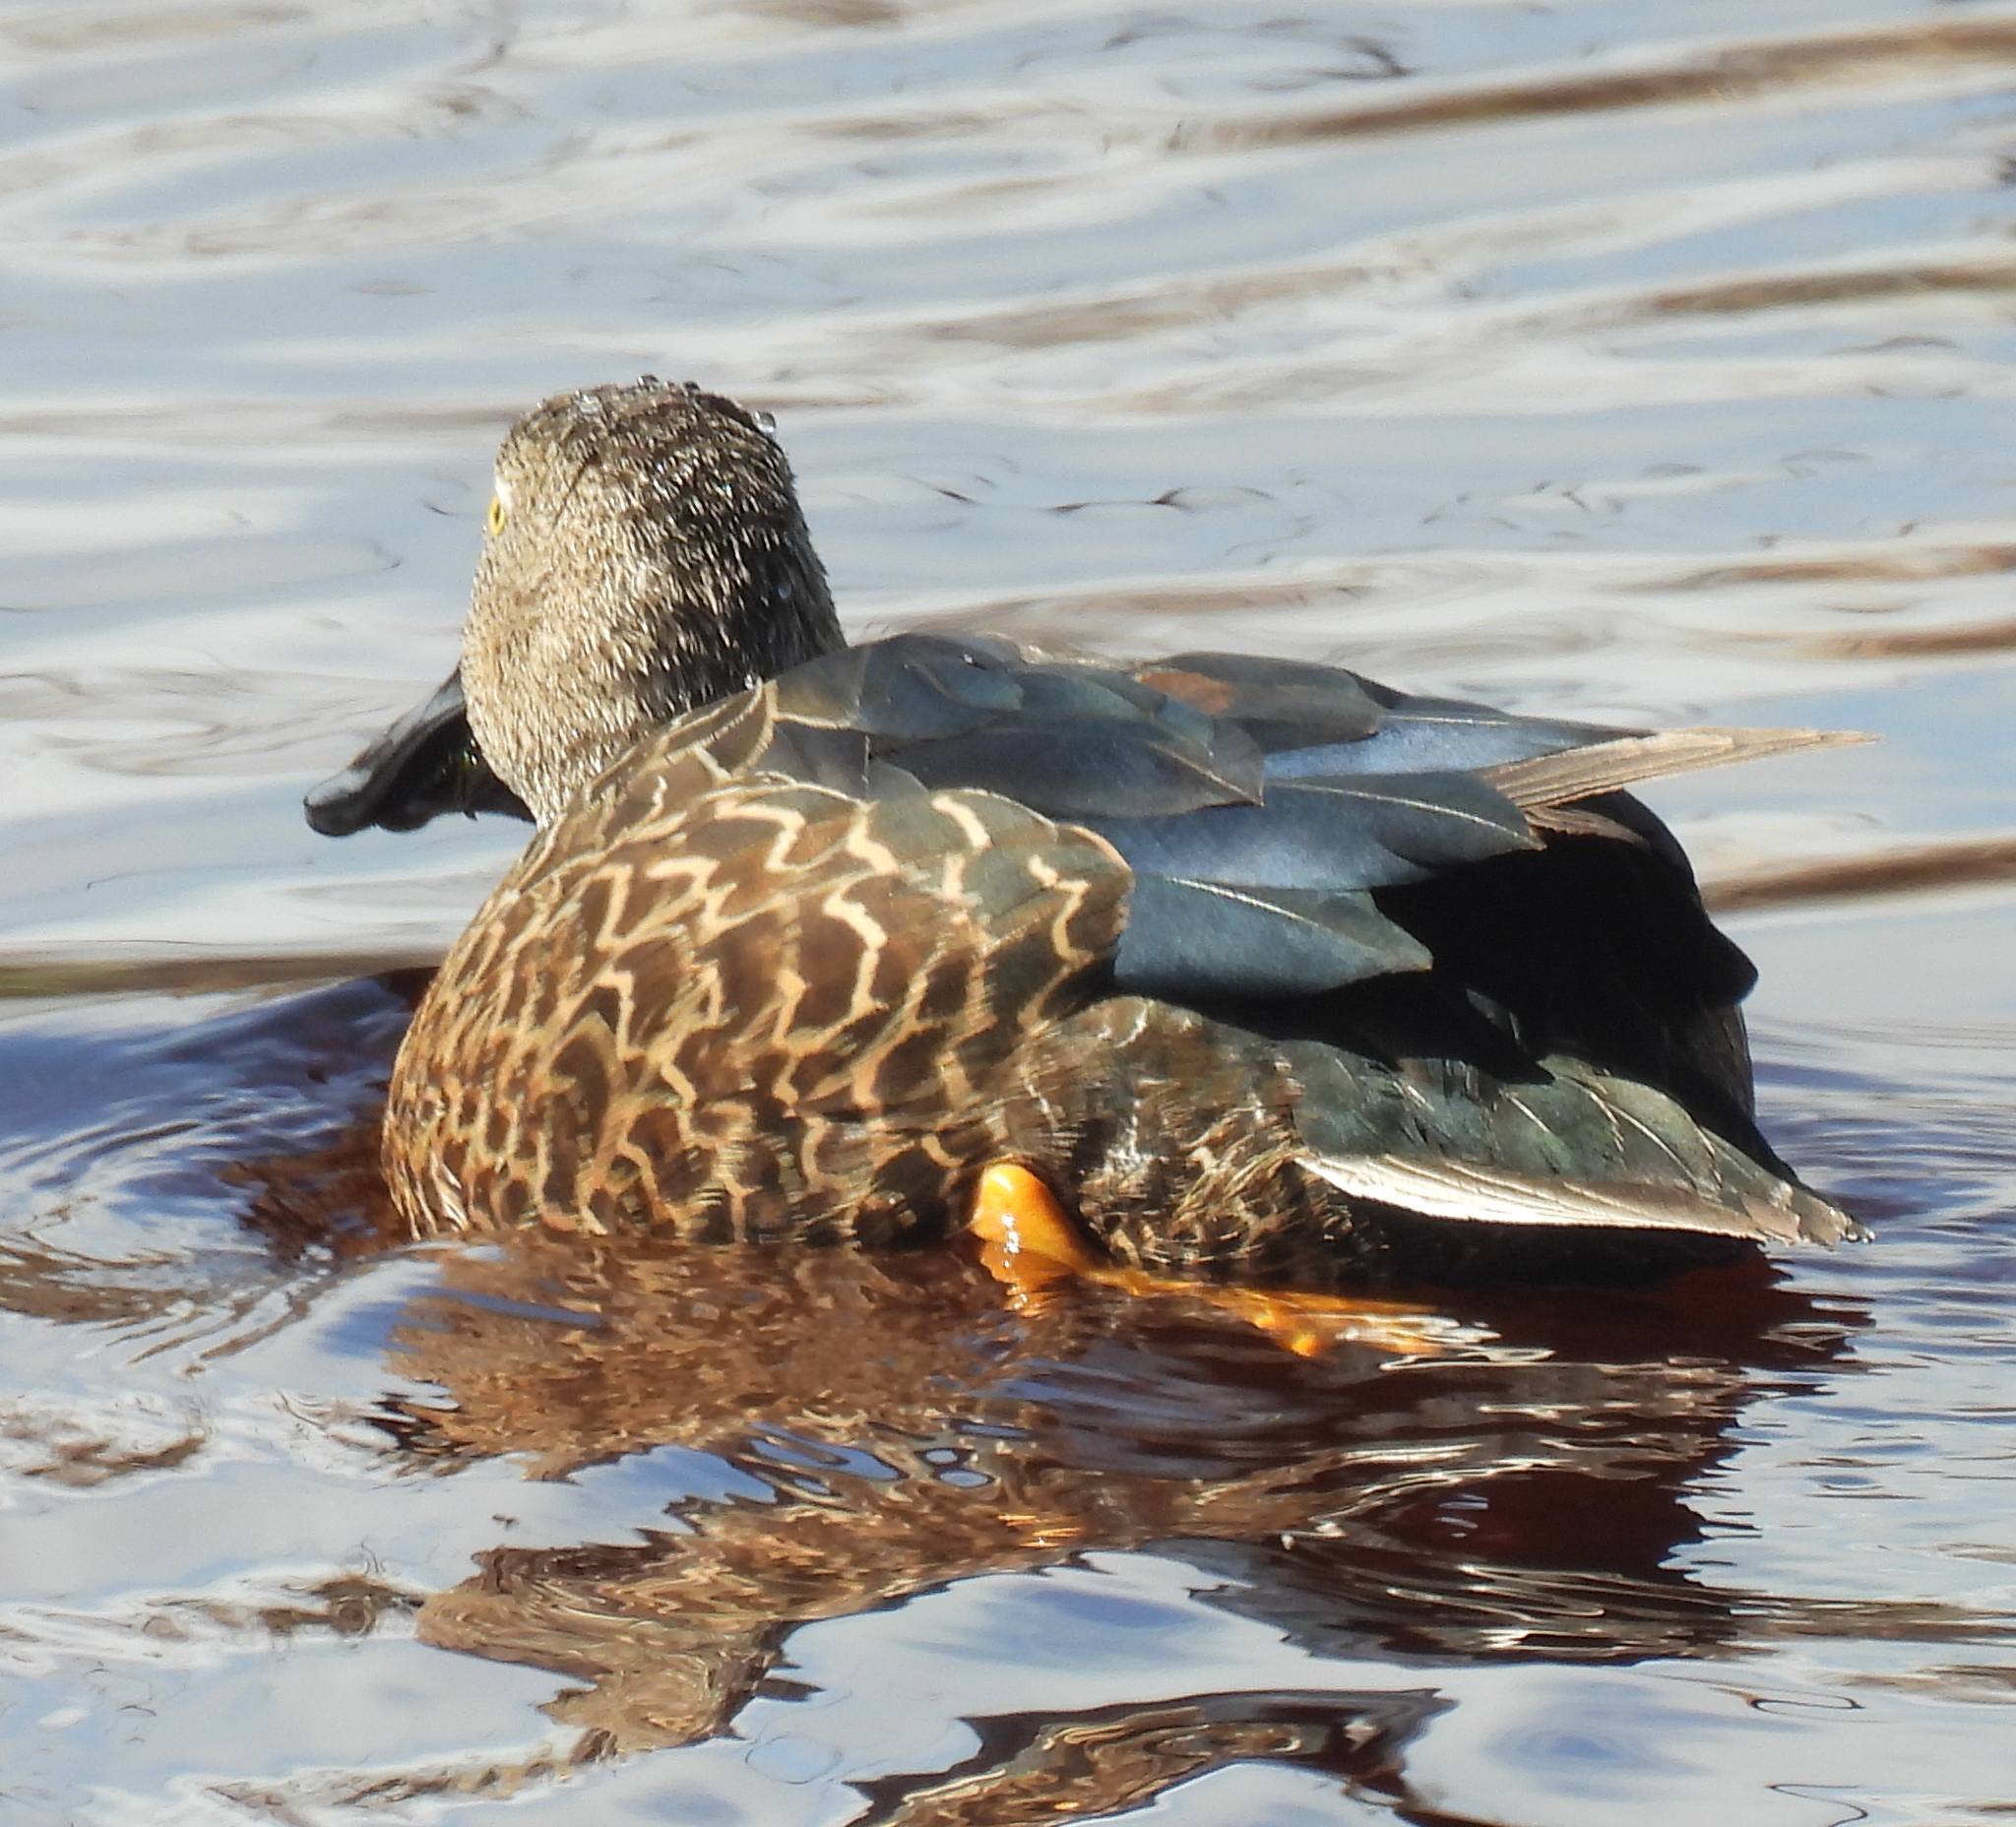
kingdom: Animalia
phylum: Chordata
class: Aves
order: Anseriformes
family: Anatidae
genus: Spatula
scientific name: Spatula smithii
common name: Cape shoveler
